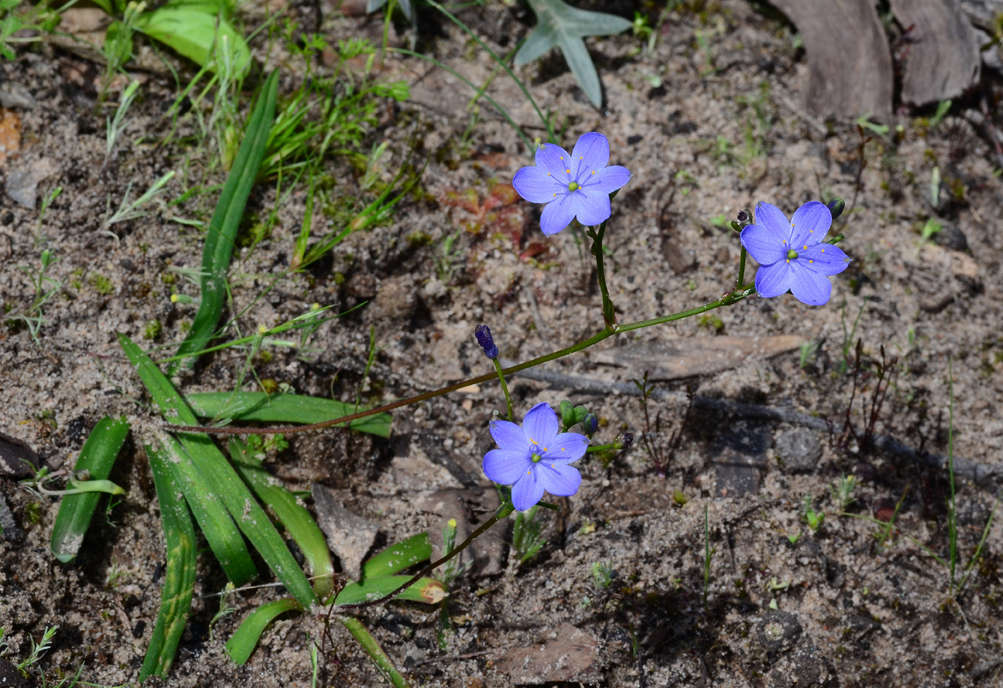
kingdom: Plantae
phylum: Tracheophyta
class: Liliopsida
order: Asparagales
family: Asphodelaceae
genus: Chamaescilla
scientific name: Chamaescilla corymbosa
